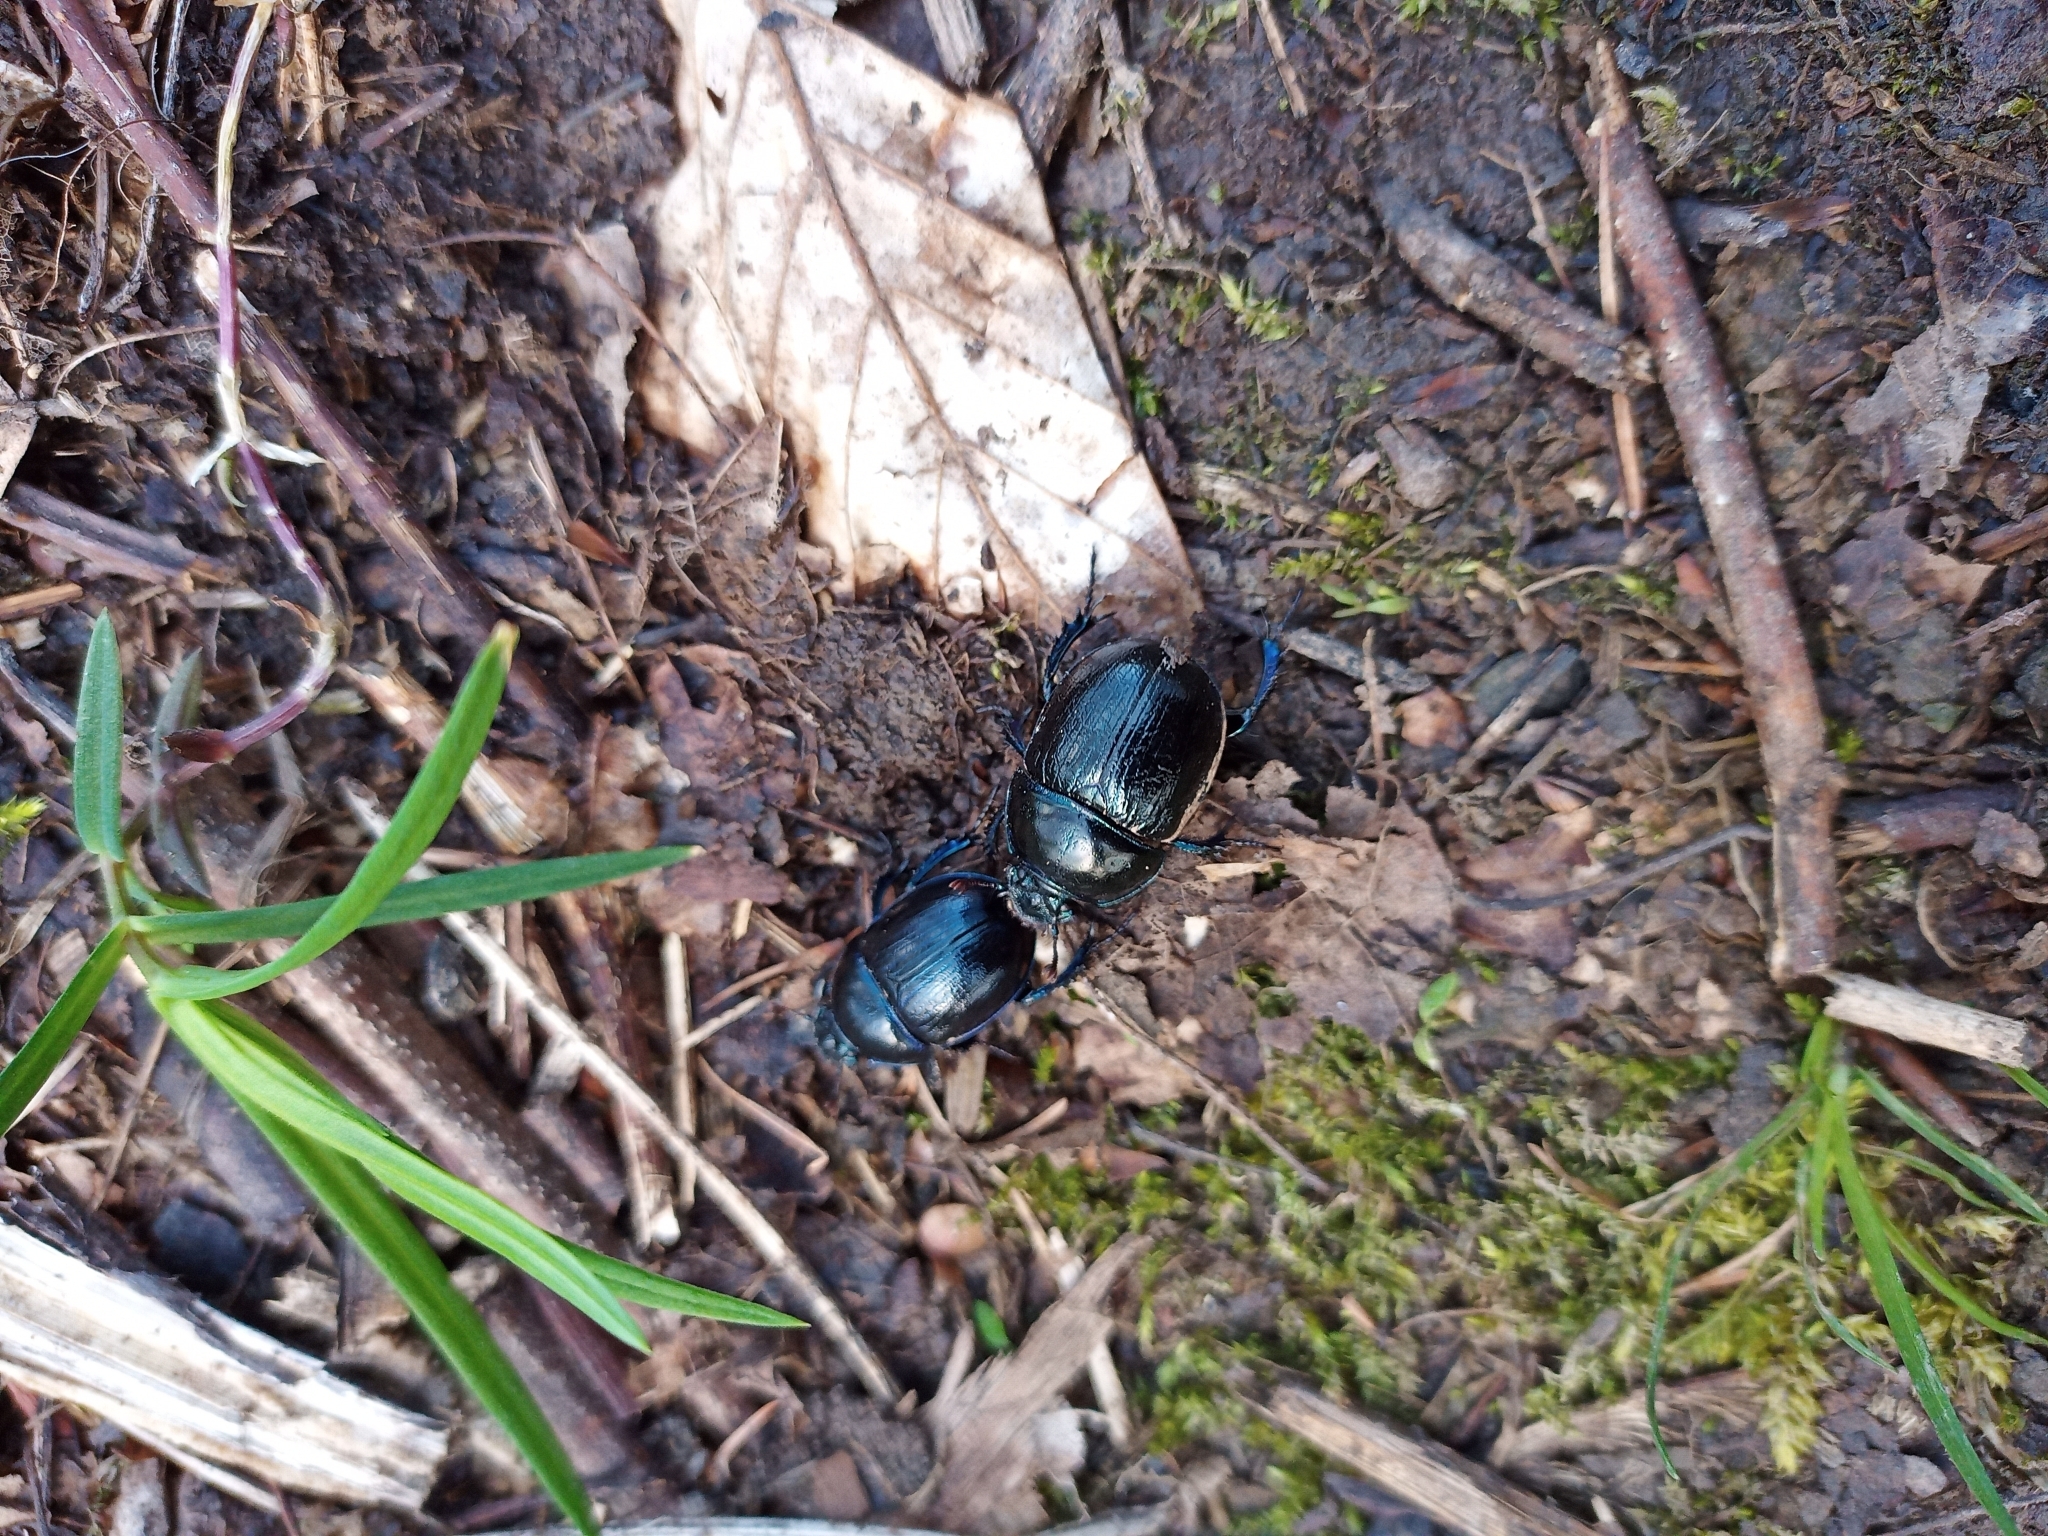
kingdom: Animalia
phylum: Arthropoda
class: Insecta
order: Coleoptera
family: Geotrupidae
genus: Anoplotrupes
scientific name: Anoplotrupes stercorosus
